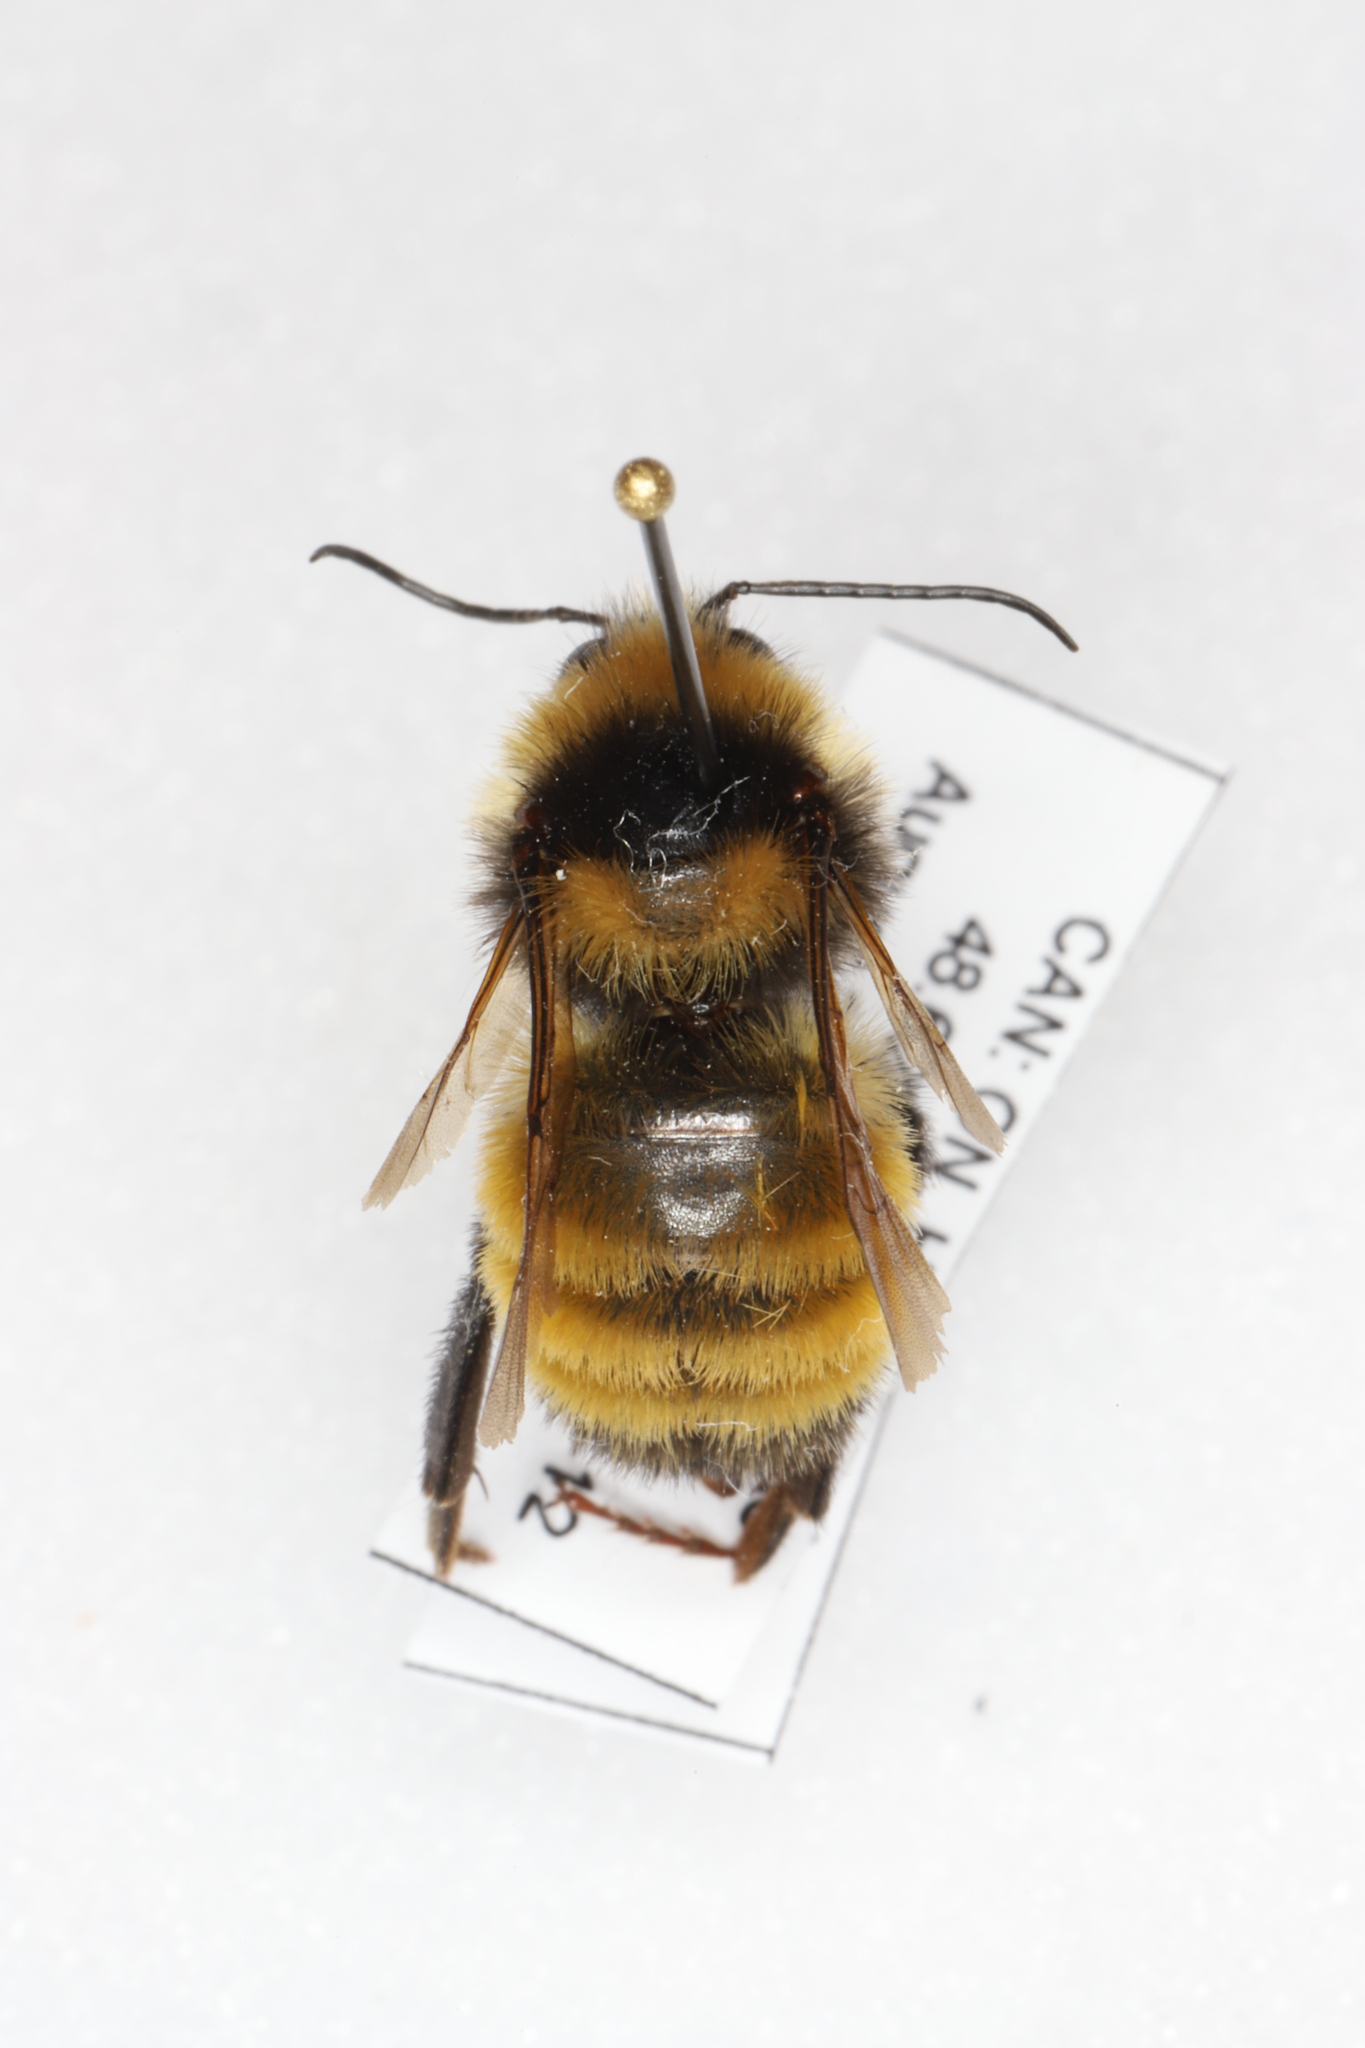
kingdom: Animalia
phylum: Arthropoda
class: Insecta
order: Hymenoptera
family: Apidae
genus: Bombus
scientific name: Bombus borealis
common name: Northern amber bumble bee
